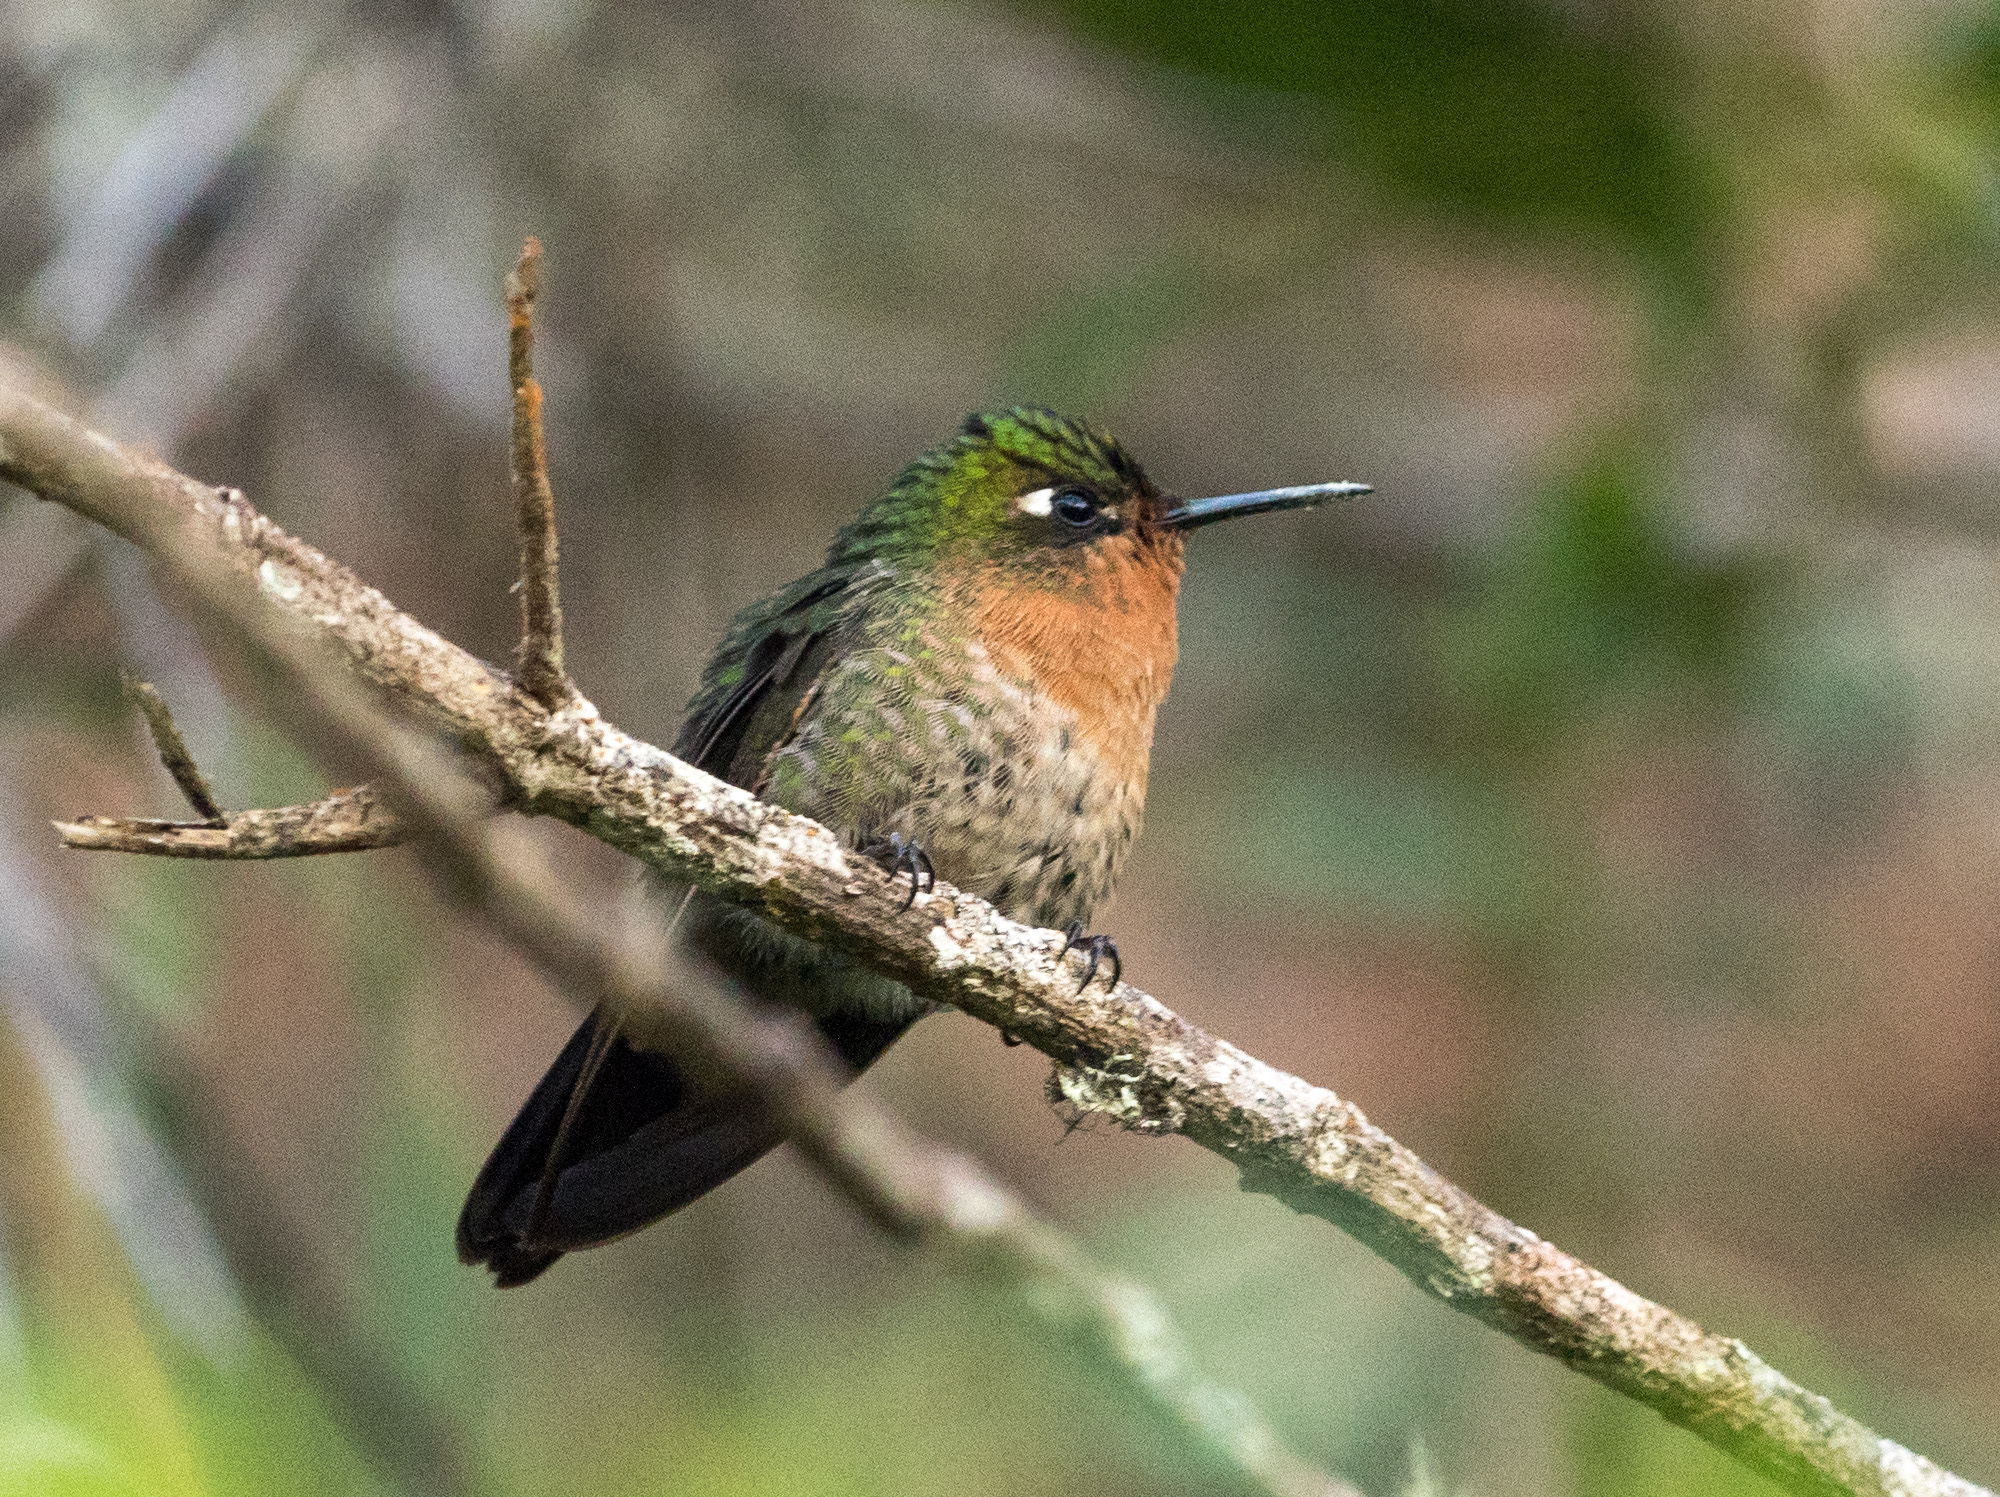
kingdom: Animalia
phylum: Chordata
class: Aves
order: Apodiformes
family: Trochilidae
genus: Metallura
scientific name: Metallura tyrianthina
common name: Tyrian metaltail
